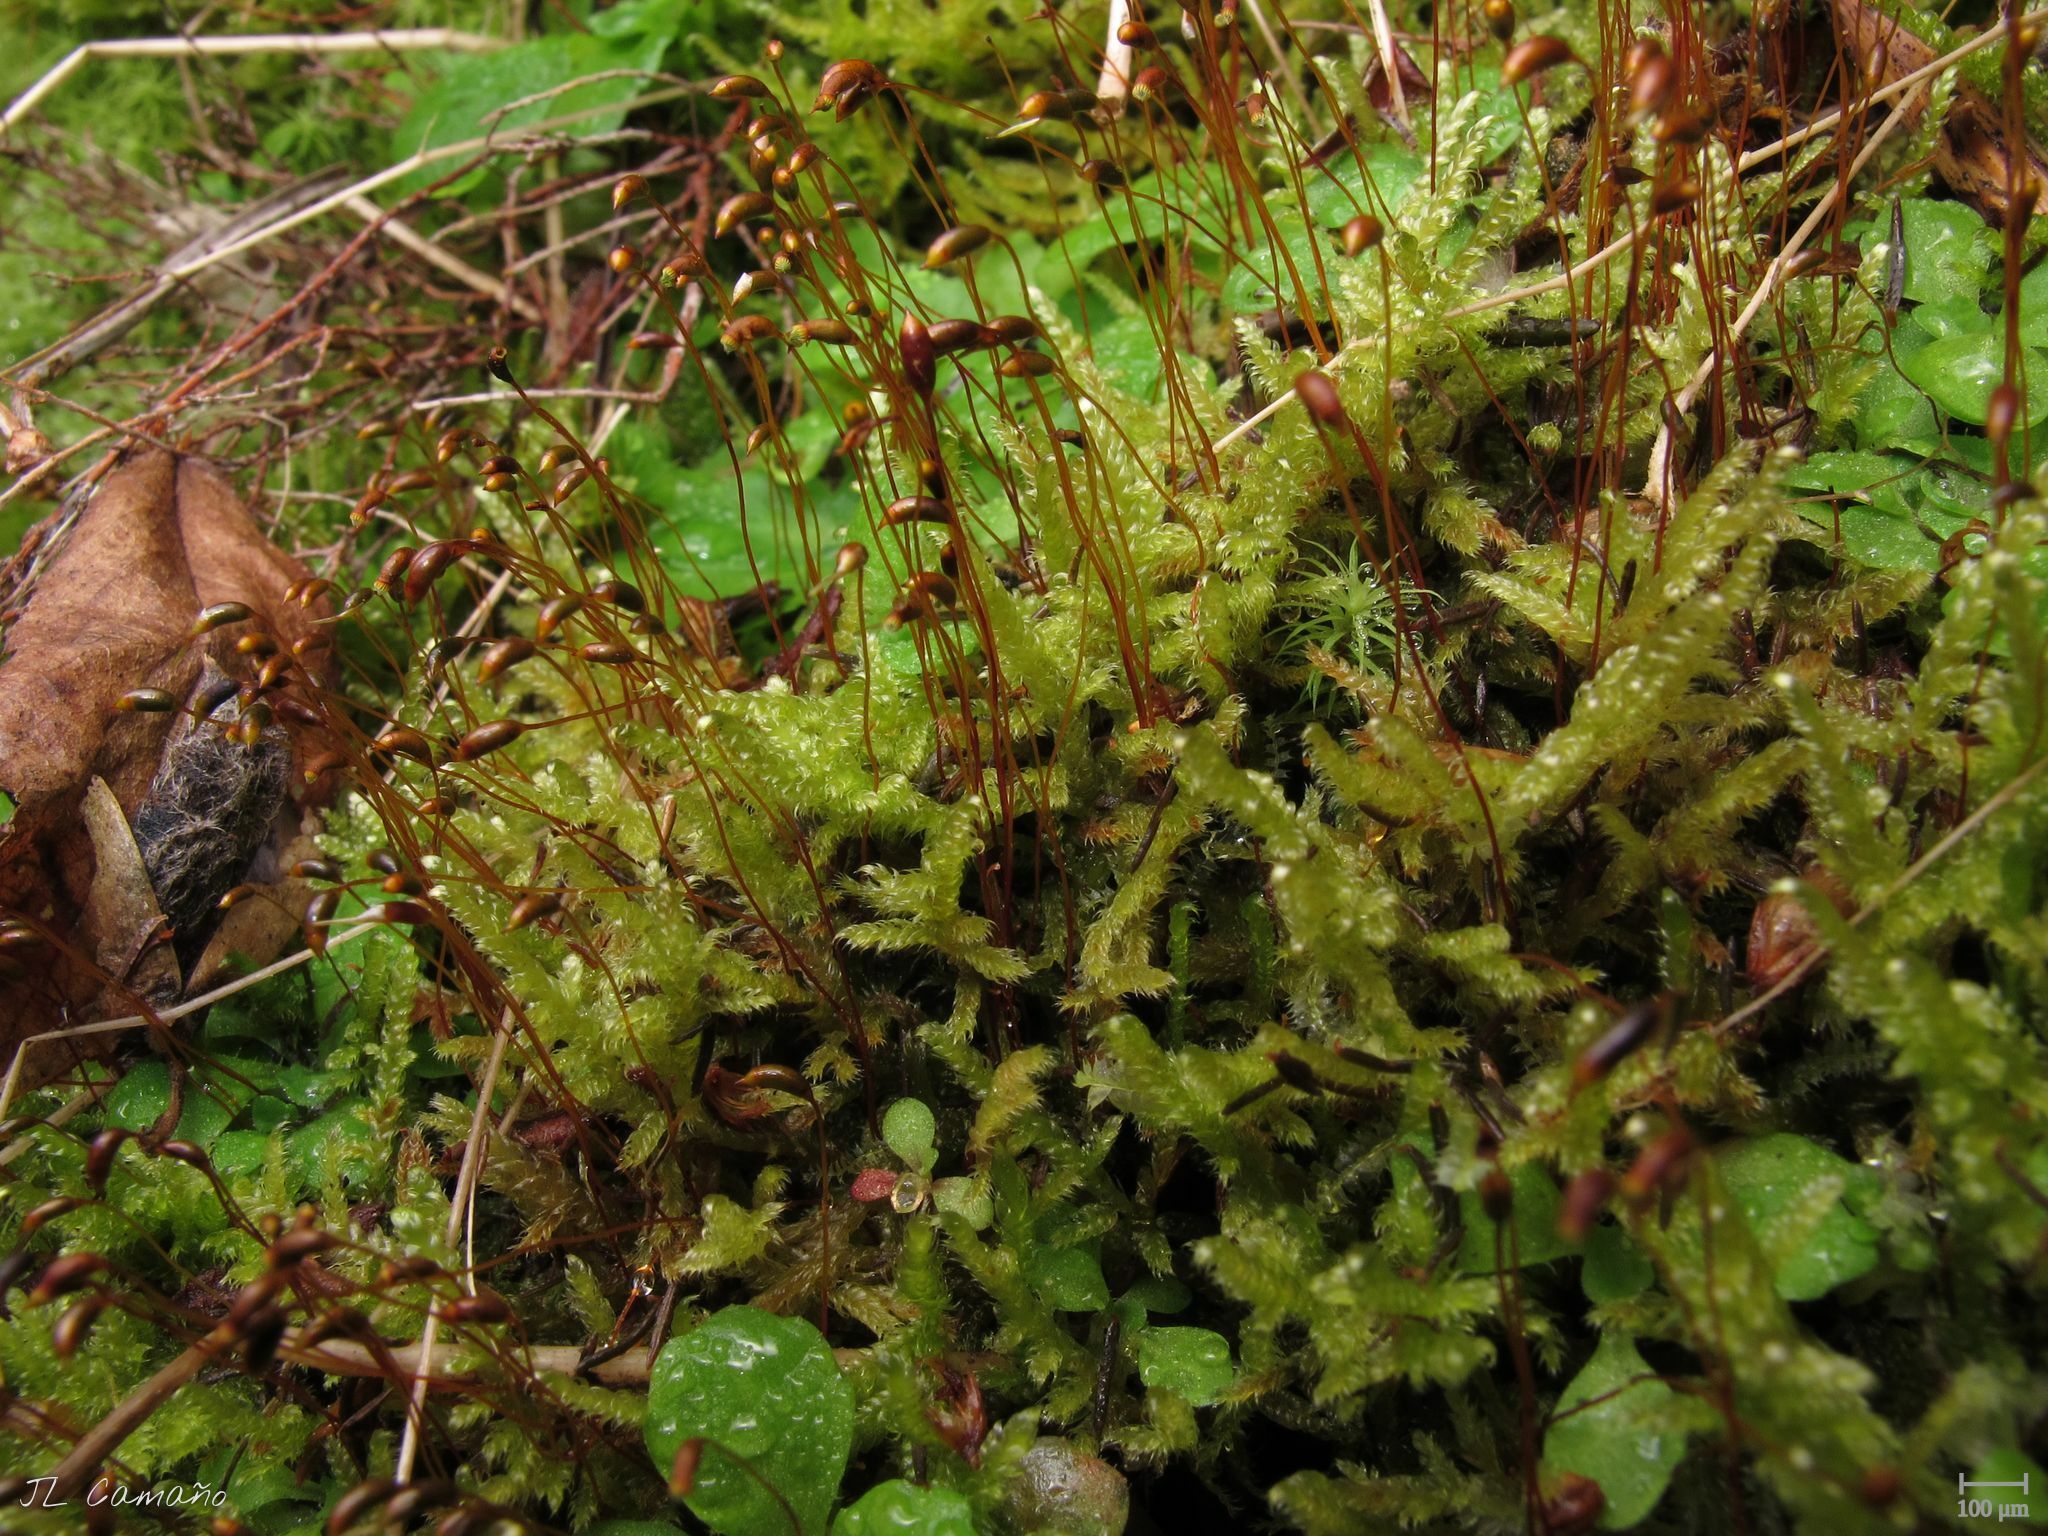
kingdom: Plantae
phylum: Bryophyta
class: Bryopsida
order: Hypnales
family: Hypnaceae
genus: Hypnum
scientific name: Hypnum jutlandicum
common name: Heath plait-moss
